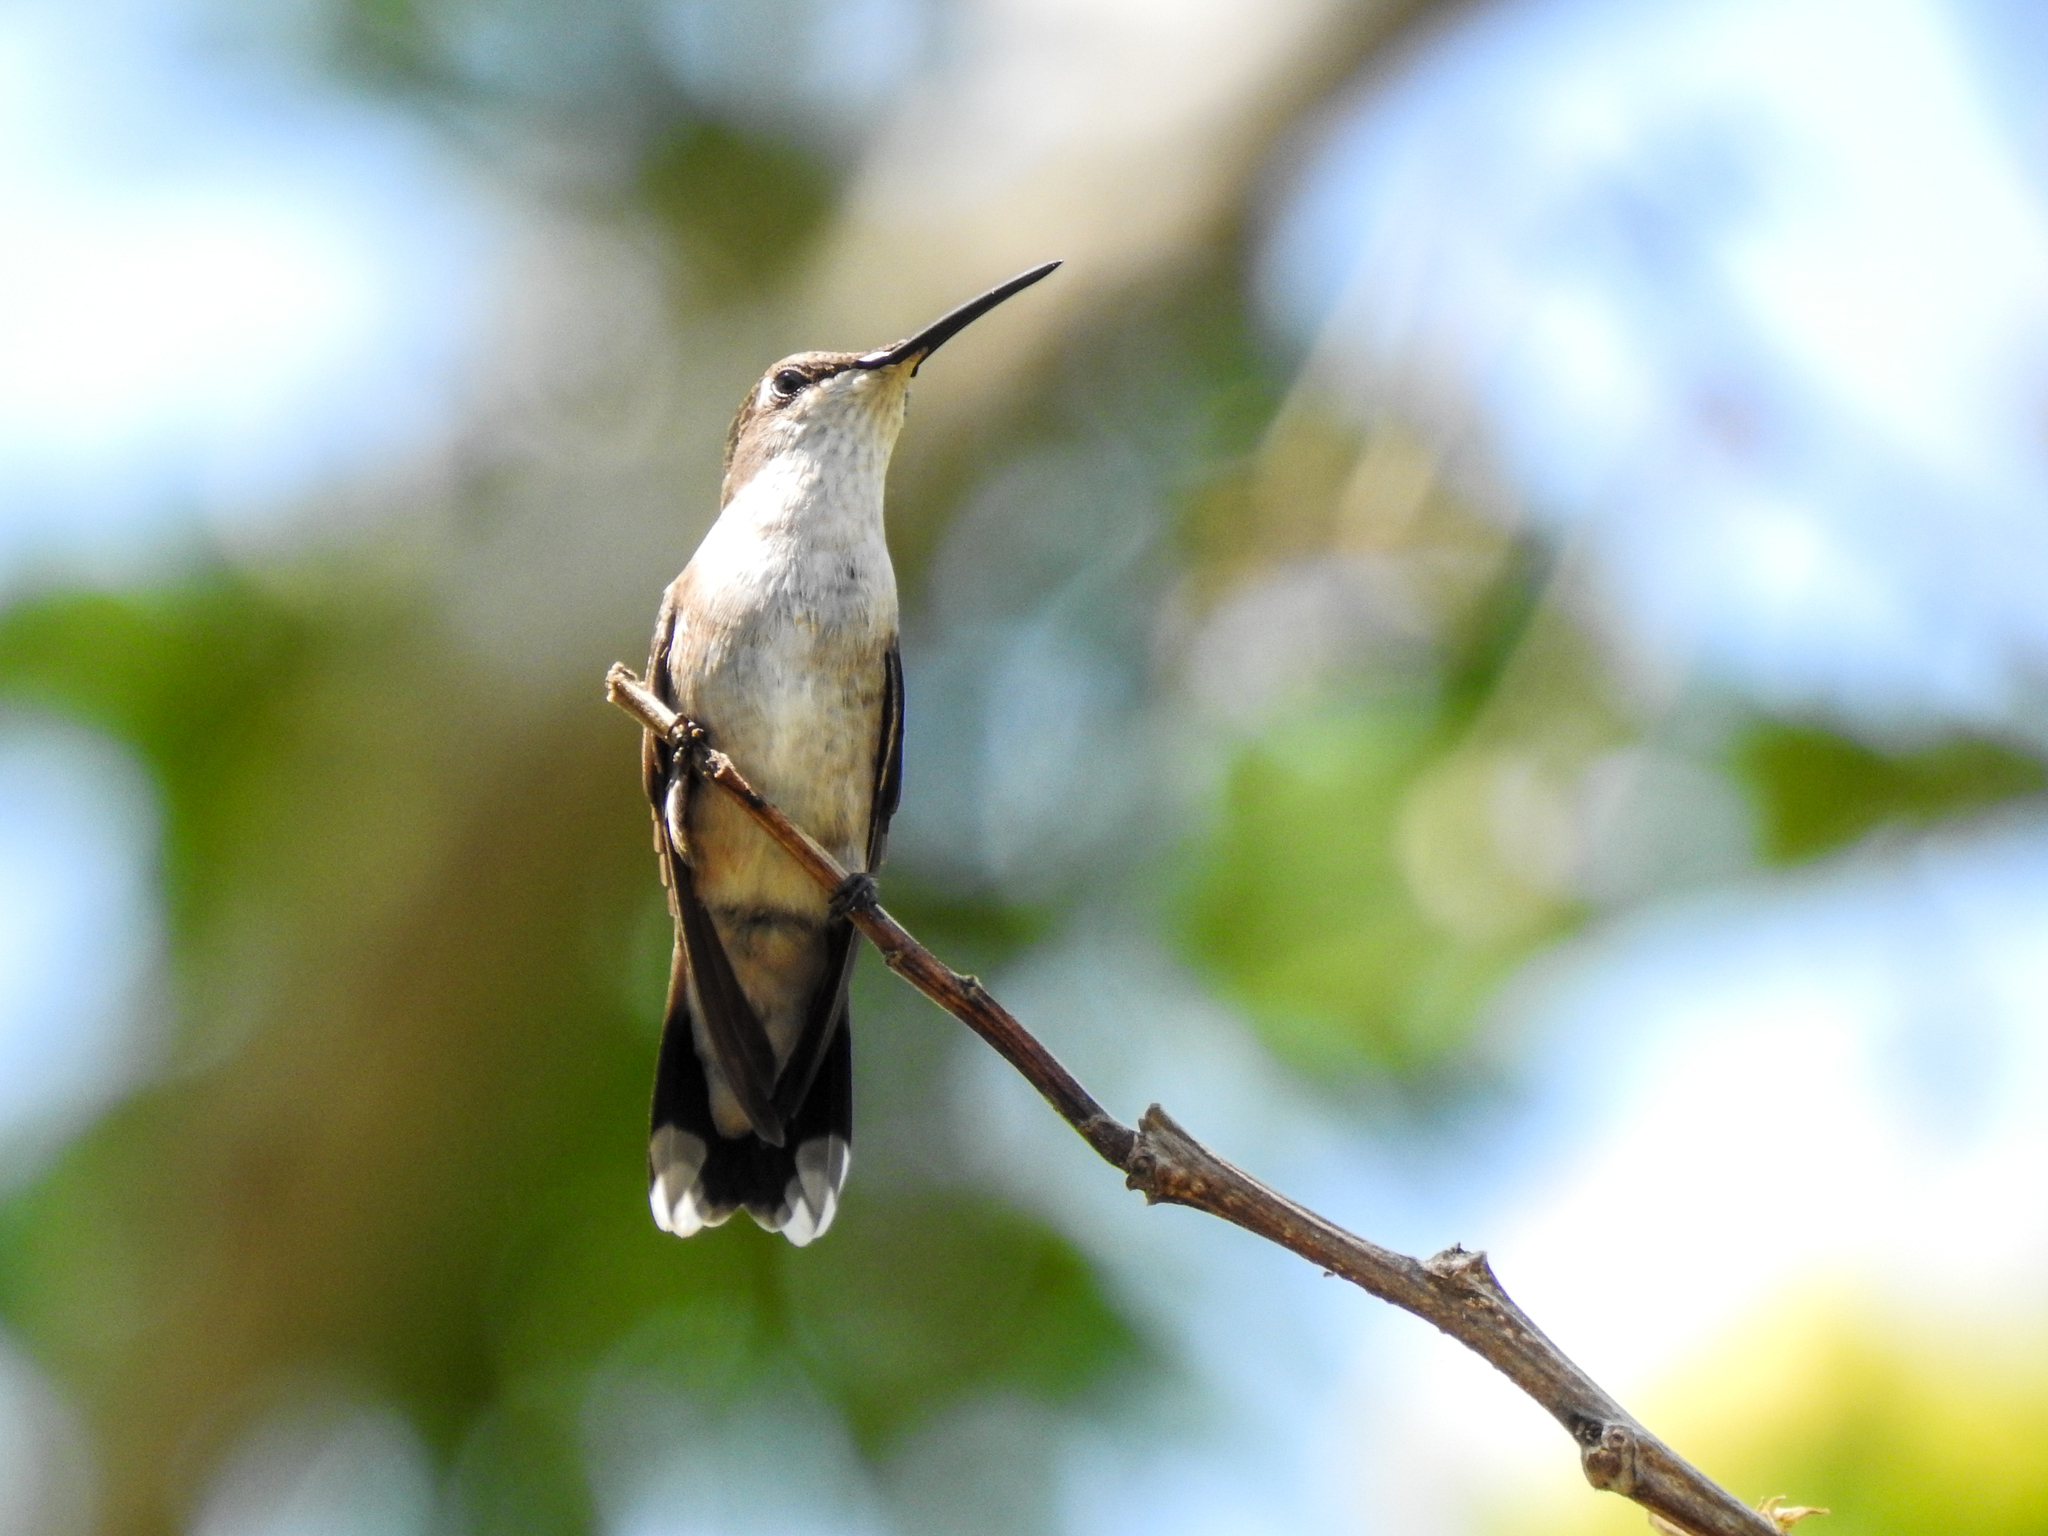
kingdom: Animalia
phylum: Chordata
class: Aves
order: Apodiformes
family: Trochilidae
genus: Archilochus
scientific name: Archilochus colubris
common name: Ruby-throated hummingbird
